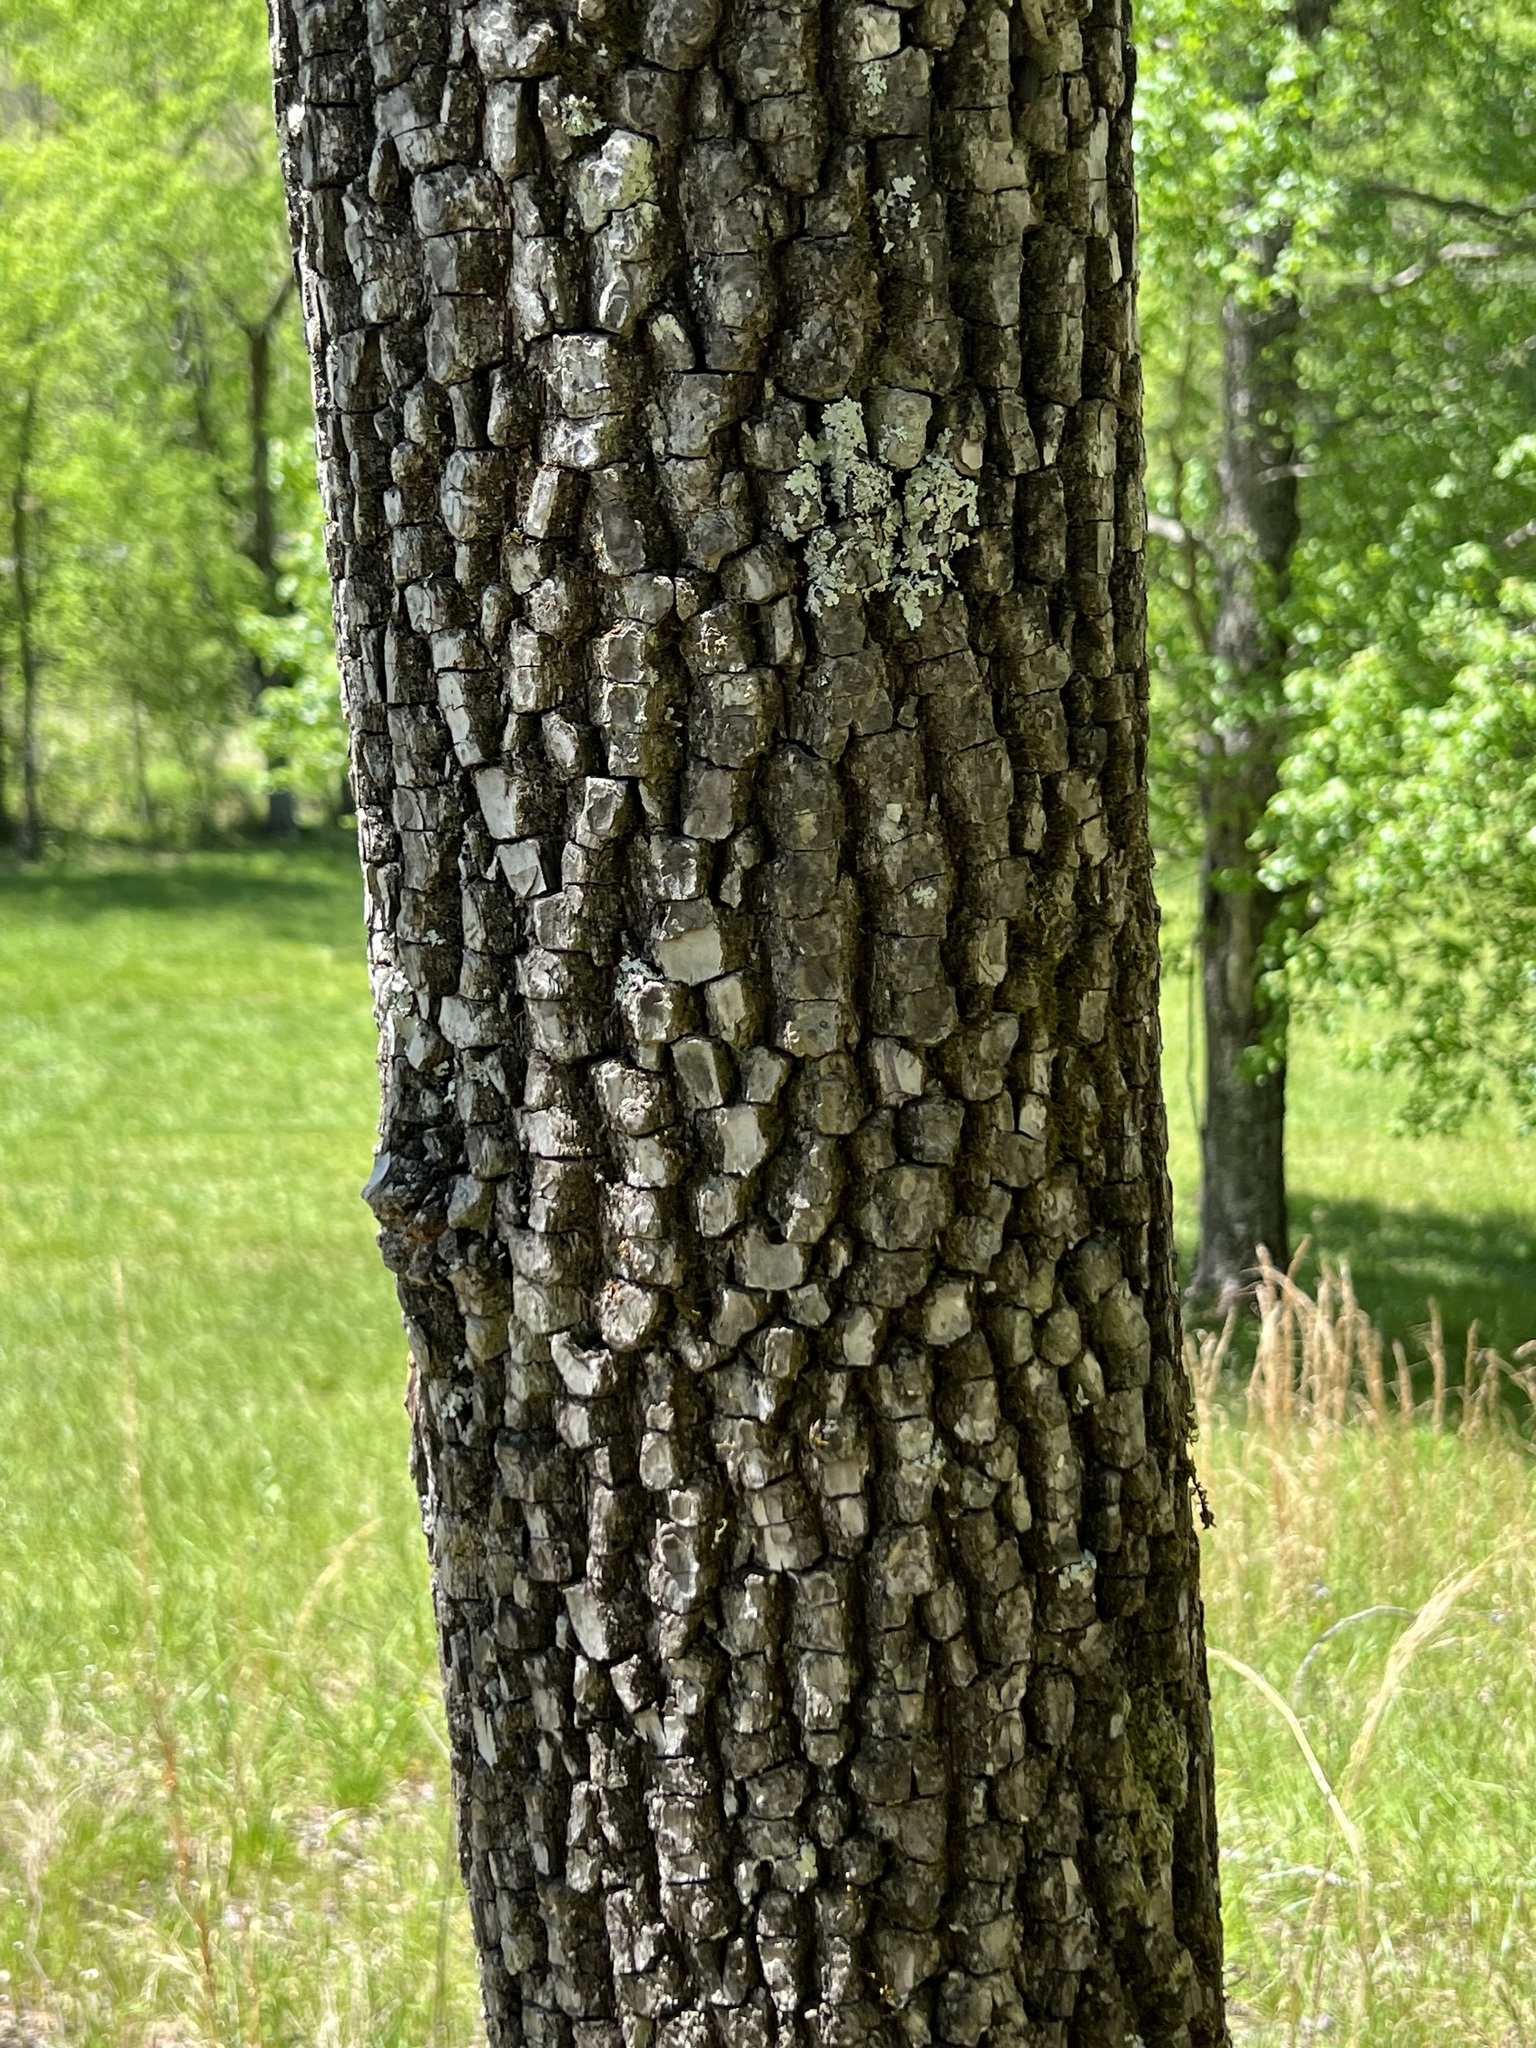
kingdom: Plantae
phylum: Tracheophyta
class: Magnoliopsida
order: Ericales
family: Ebenaceae
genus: Diospyros
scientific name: Diospyros virginiana
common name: Persimmon
